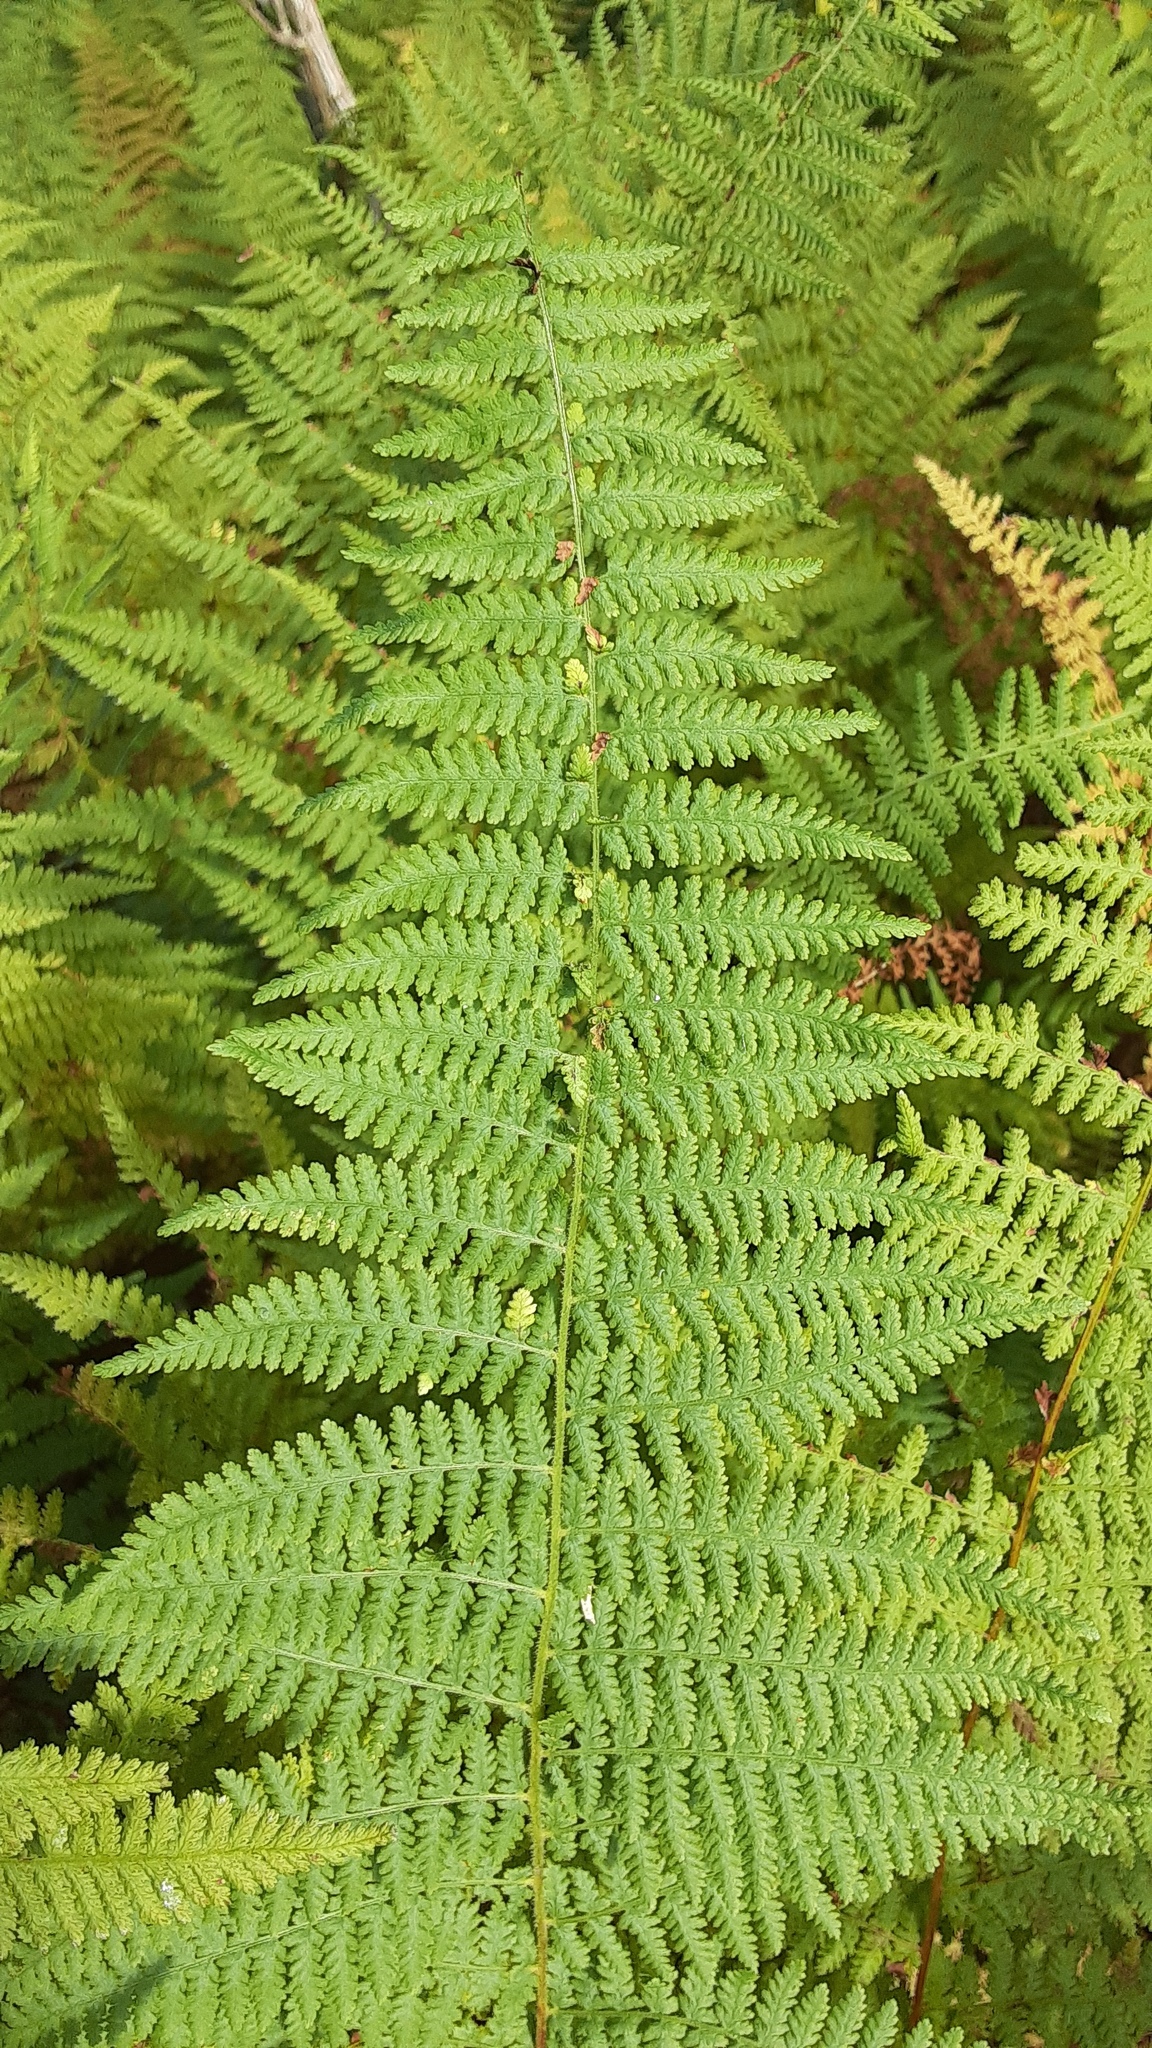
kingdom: Plantae
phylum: Tracheophyta
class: Polypodiopsida
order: Polypodiales
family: Dennstaedtiaceae
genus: Sitobolium
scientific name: Sitobolium punctilobum
